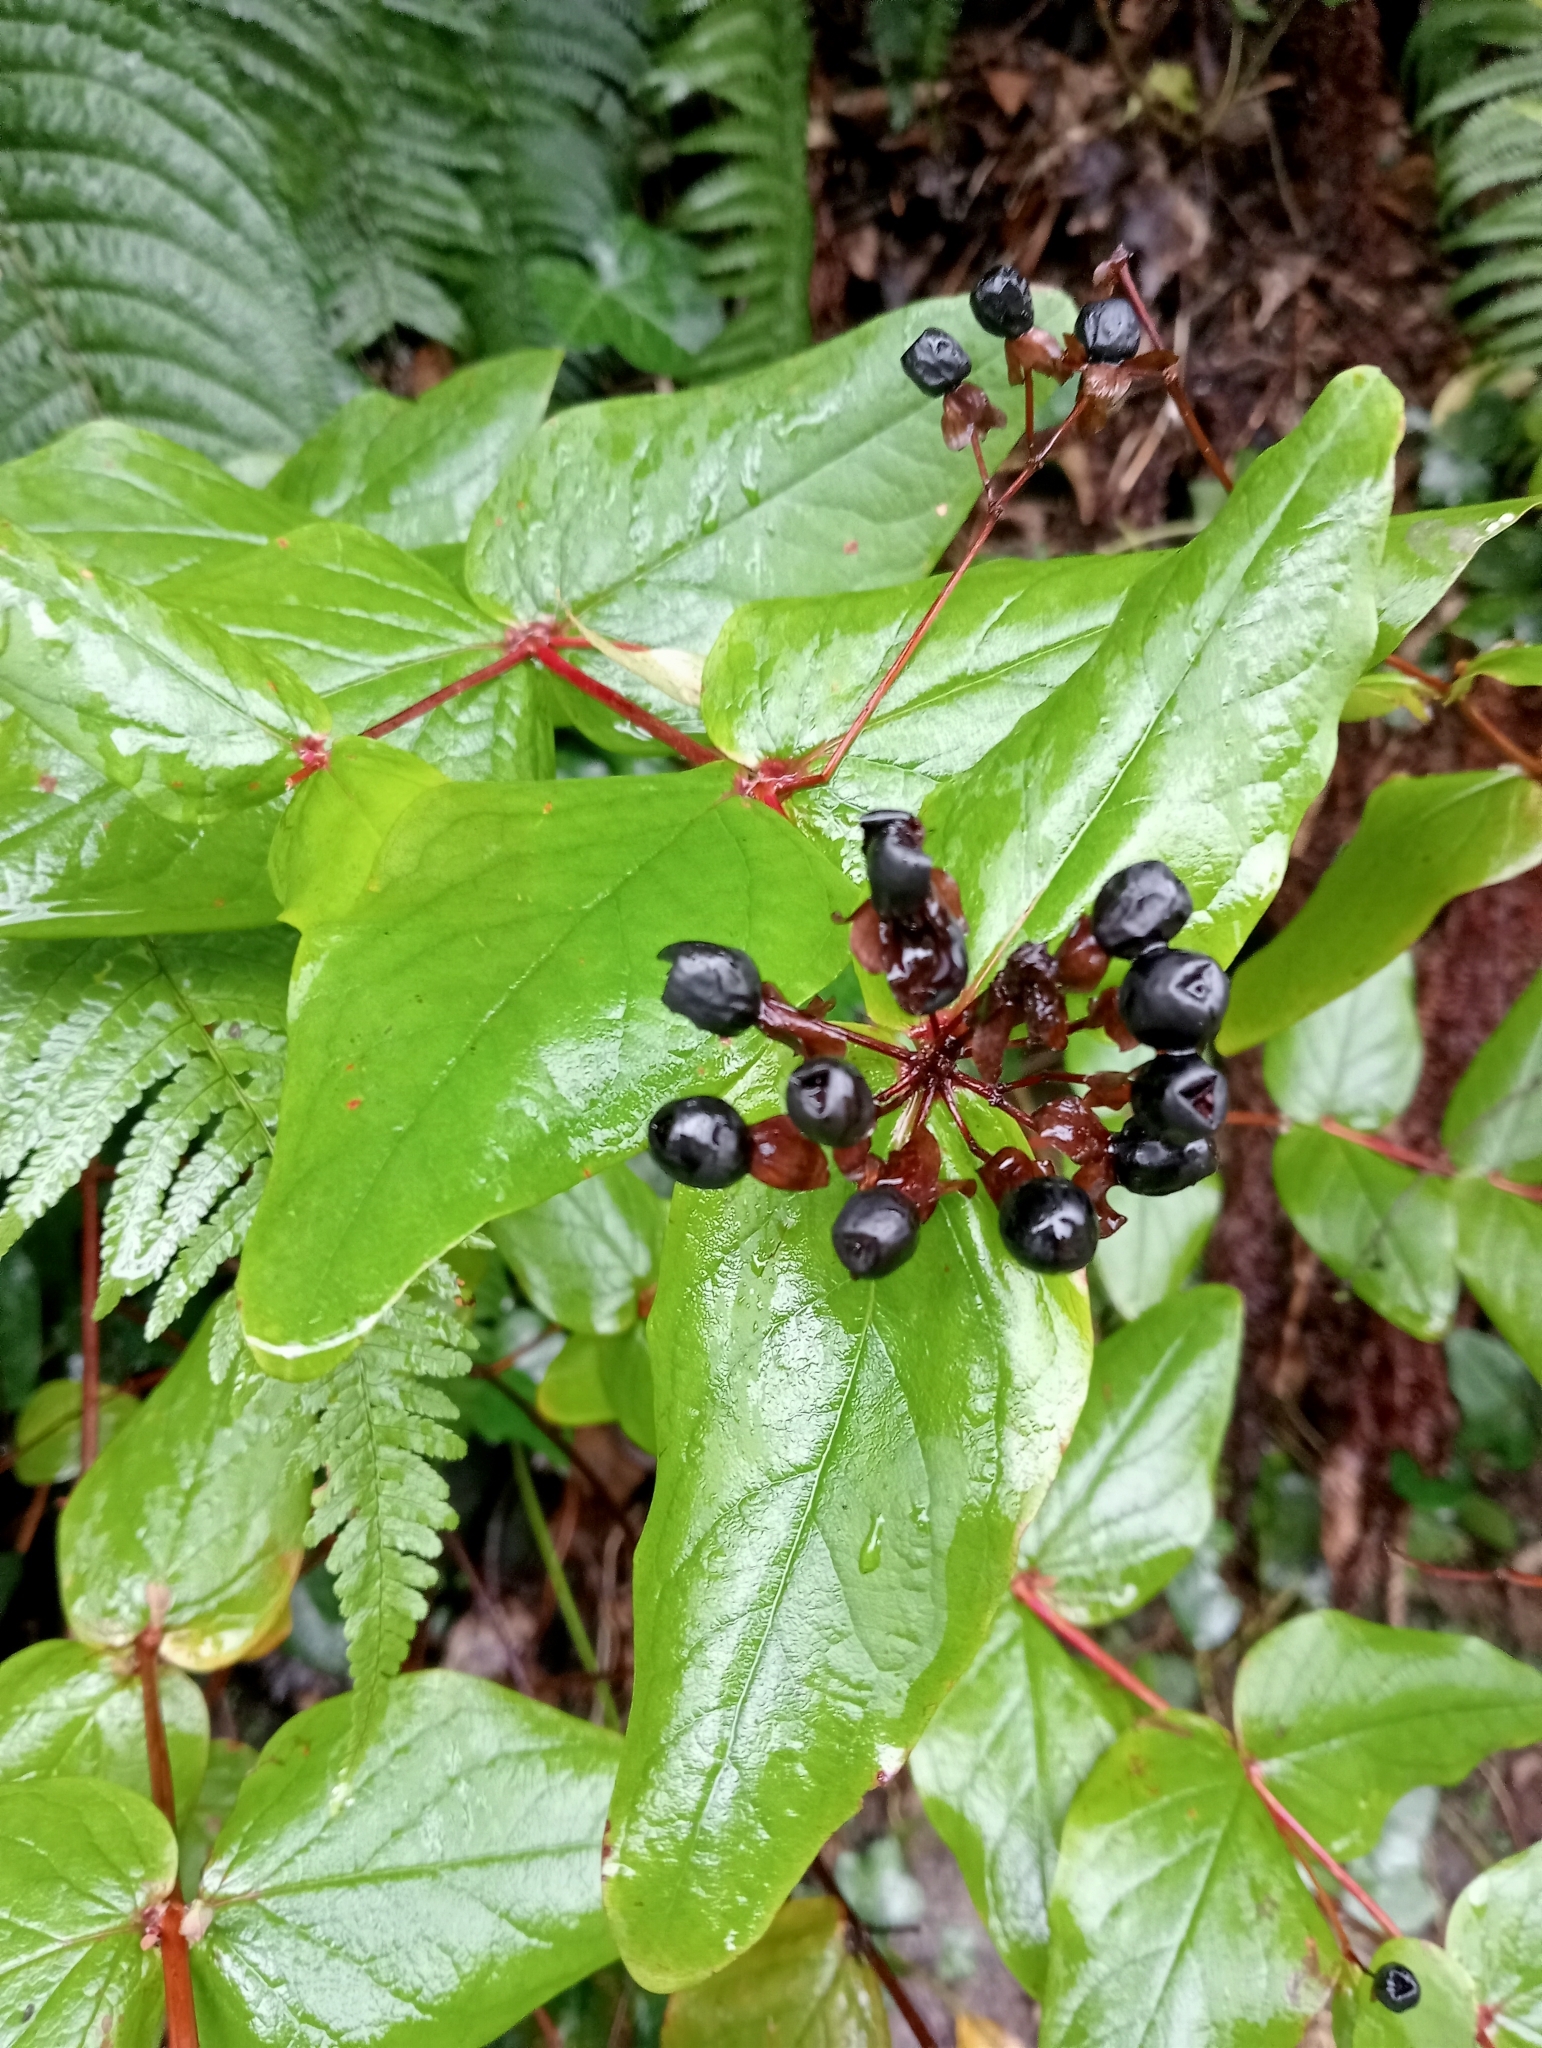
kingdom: Plantae
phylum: Tracheophyta
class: Magnoliopsida
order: Malpighiales
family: Hypericaceae
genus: Hypericum
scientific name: Hypericum androsaemum
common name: Sweet-amber
